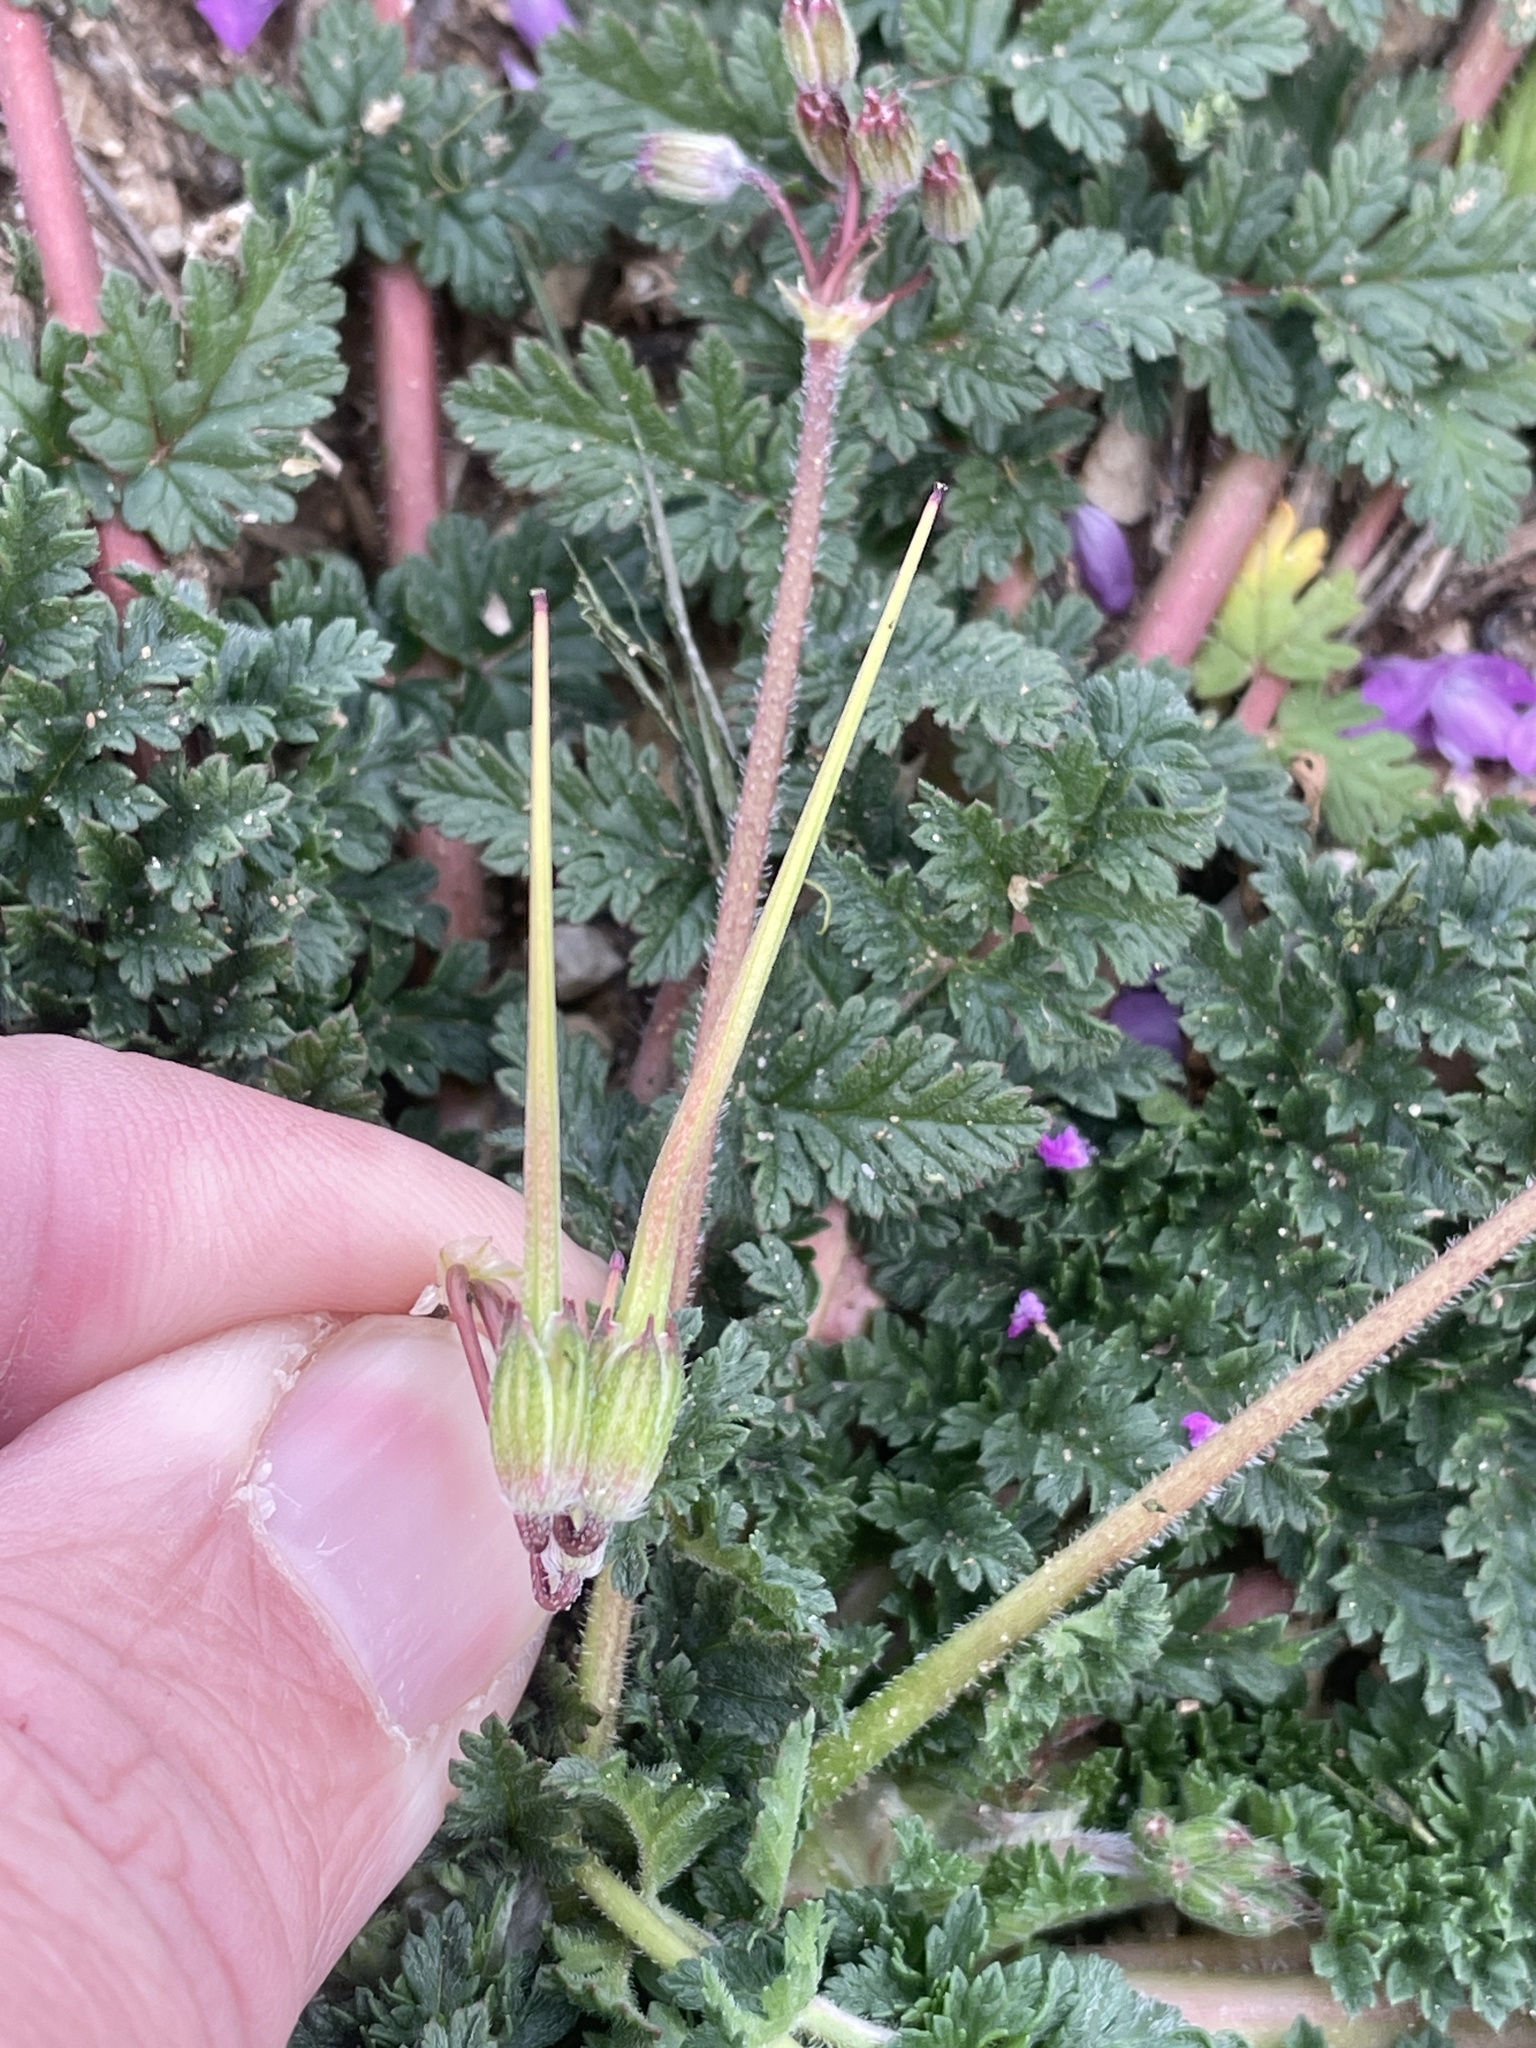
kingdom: Plantae
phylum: Tracheophyta
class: Magnoliopsida
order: Geraniales
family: Geraniaceae
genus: Erodium
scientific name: Erodium cicutarium
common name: Common stork's-bill
